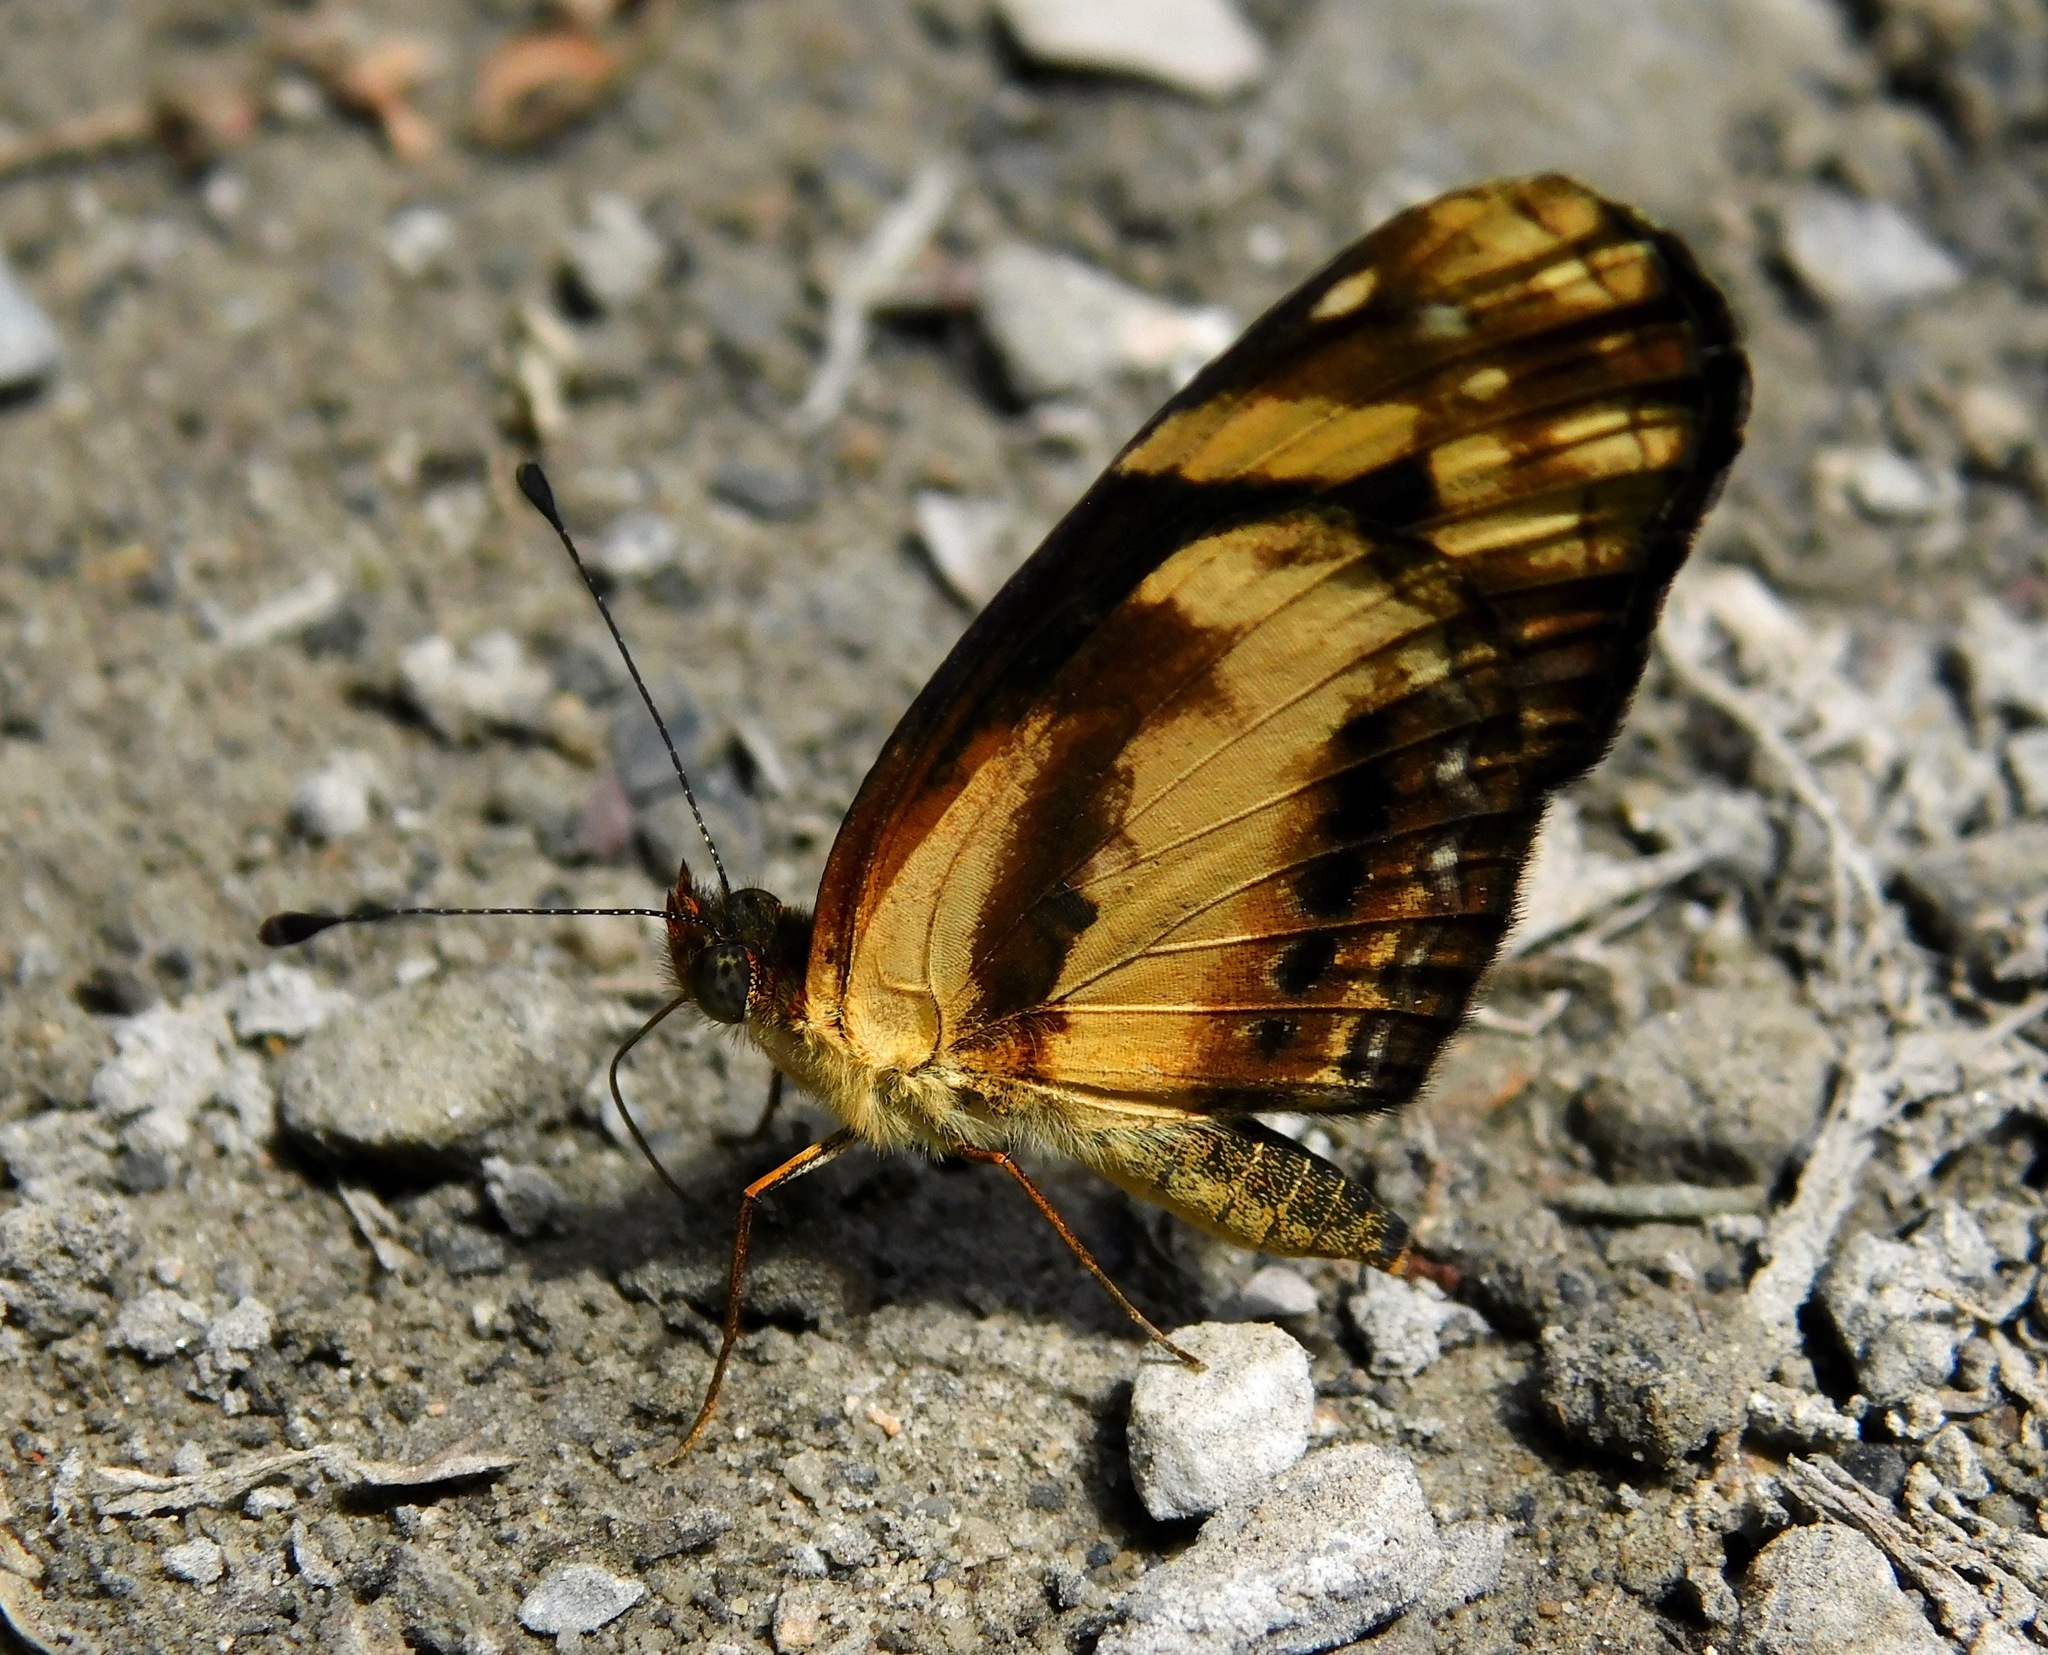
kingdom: Animalia
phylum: Arthropoda
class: Insecta
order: Lepidoptera
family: Nymphalidae
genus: Castilia
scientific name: Castilia eranites
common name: Smudged crescent
